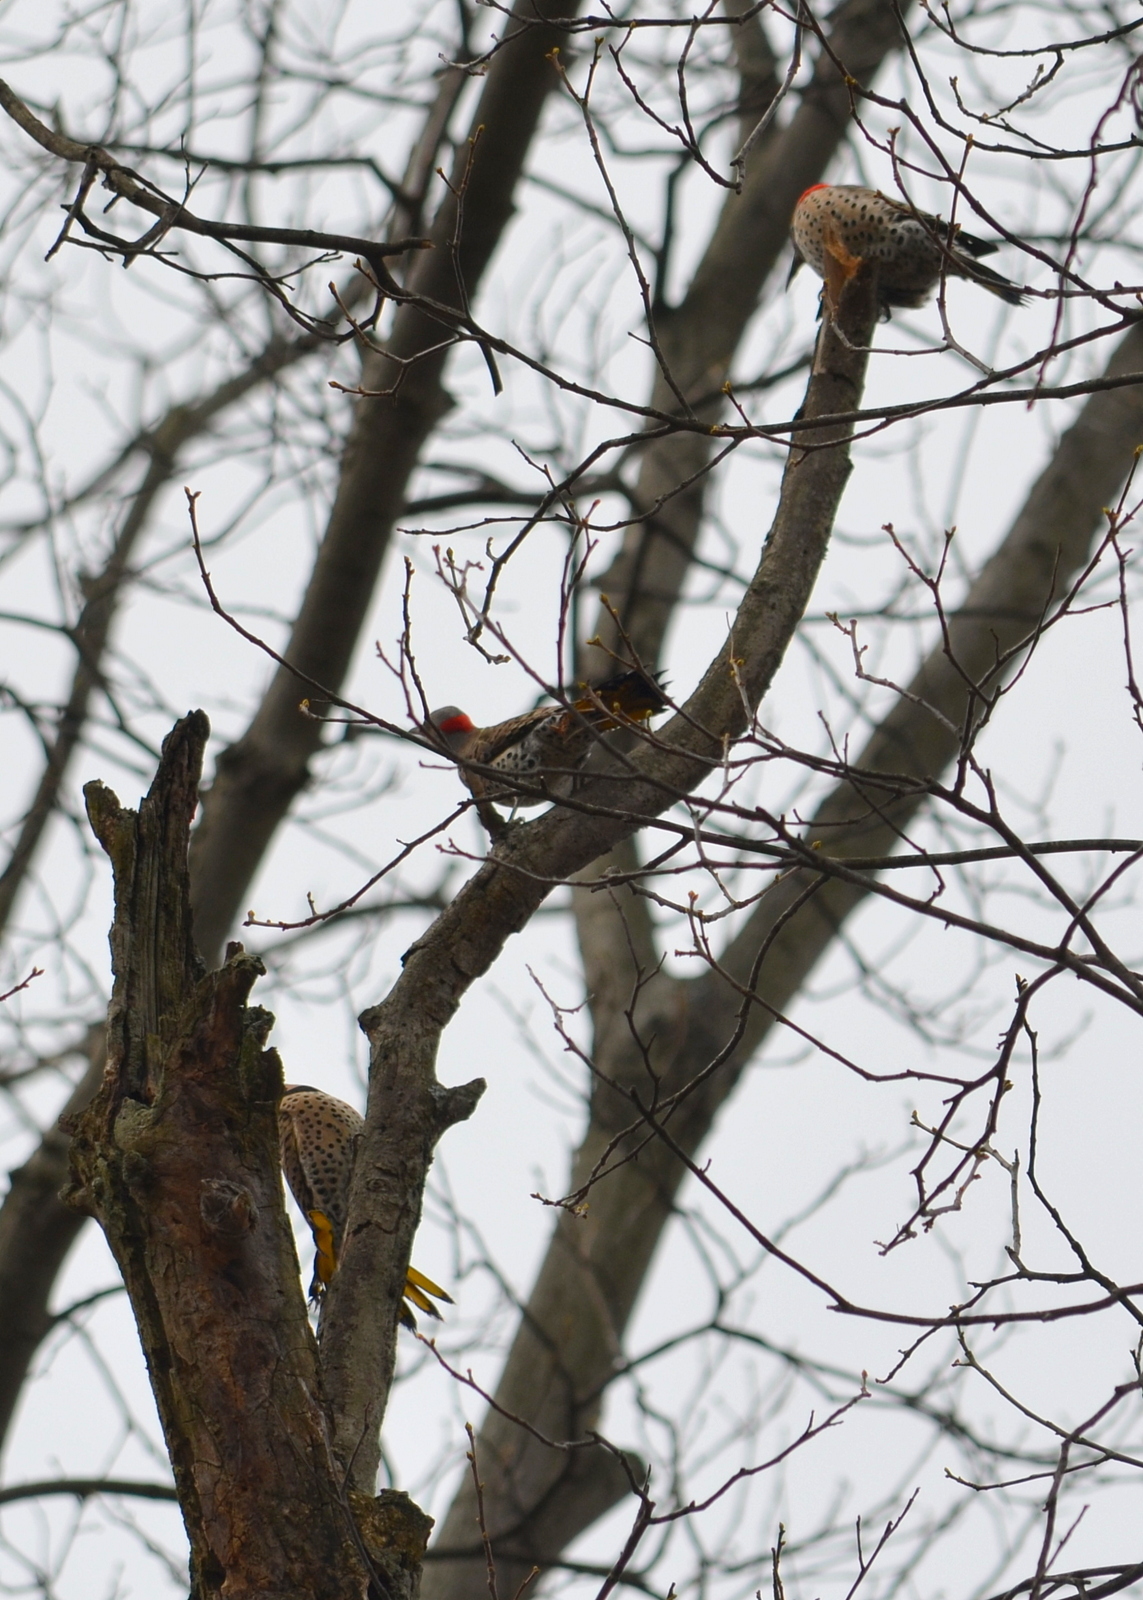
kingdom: Animalia
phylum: Chordata
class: Aves
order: Piciformes
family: Picidae
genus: Colaptes
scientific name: Colaptes auratus
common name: Northern flicker
